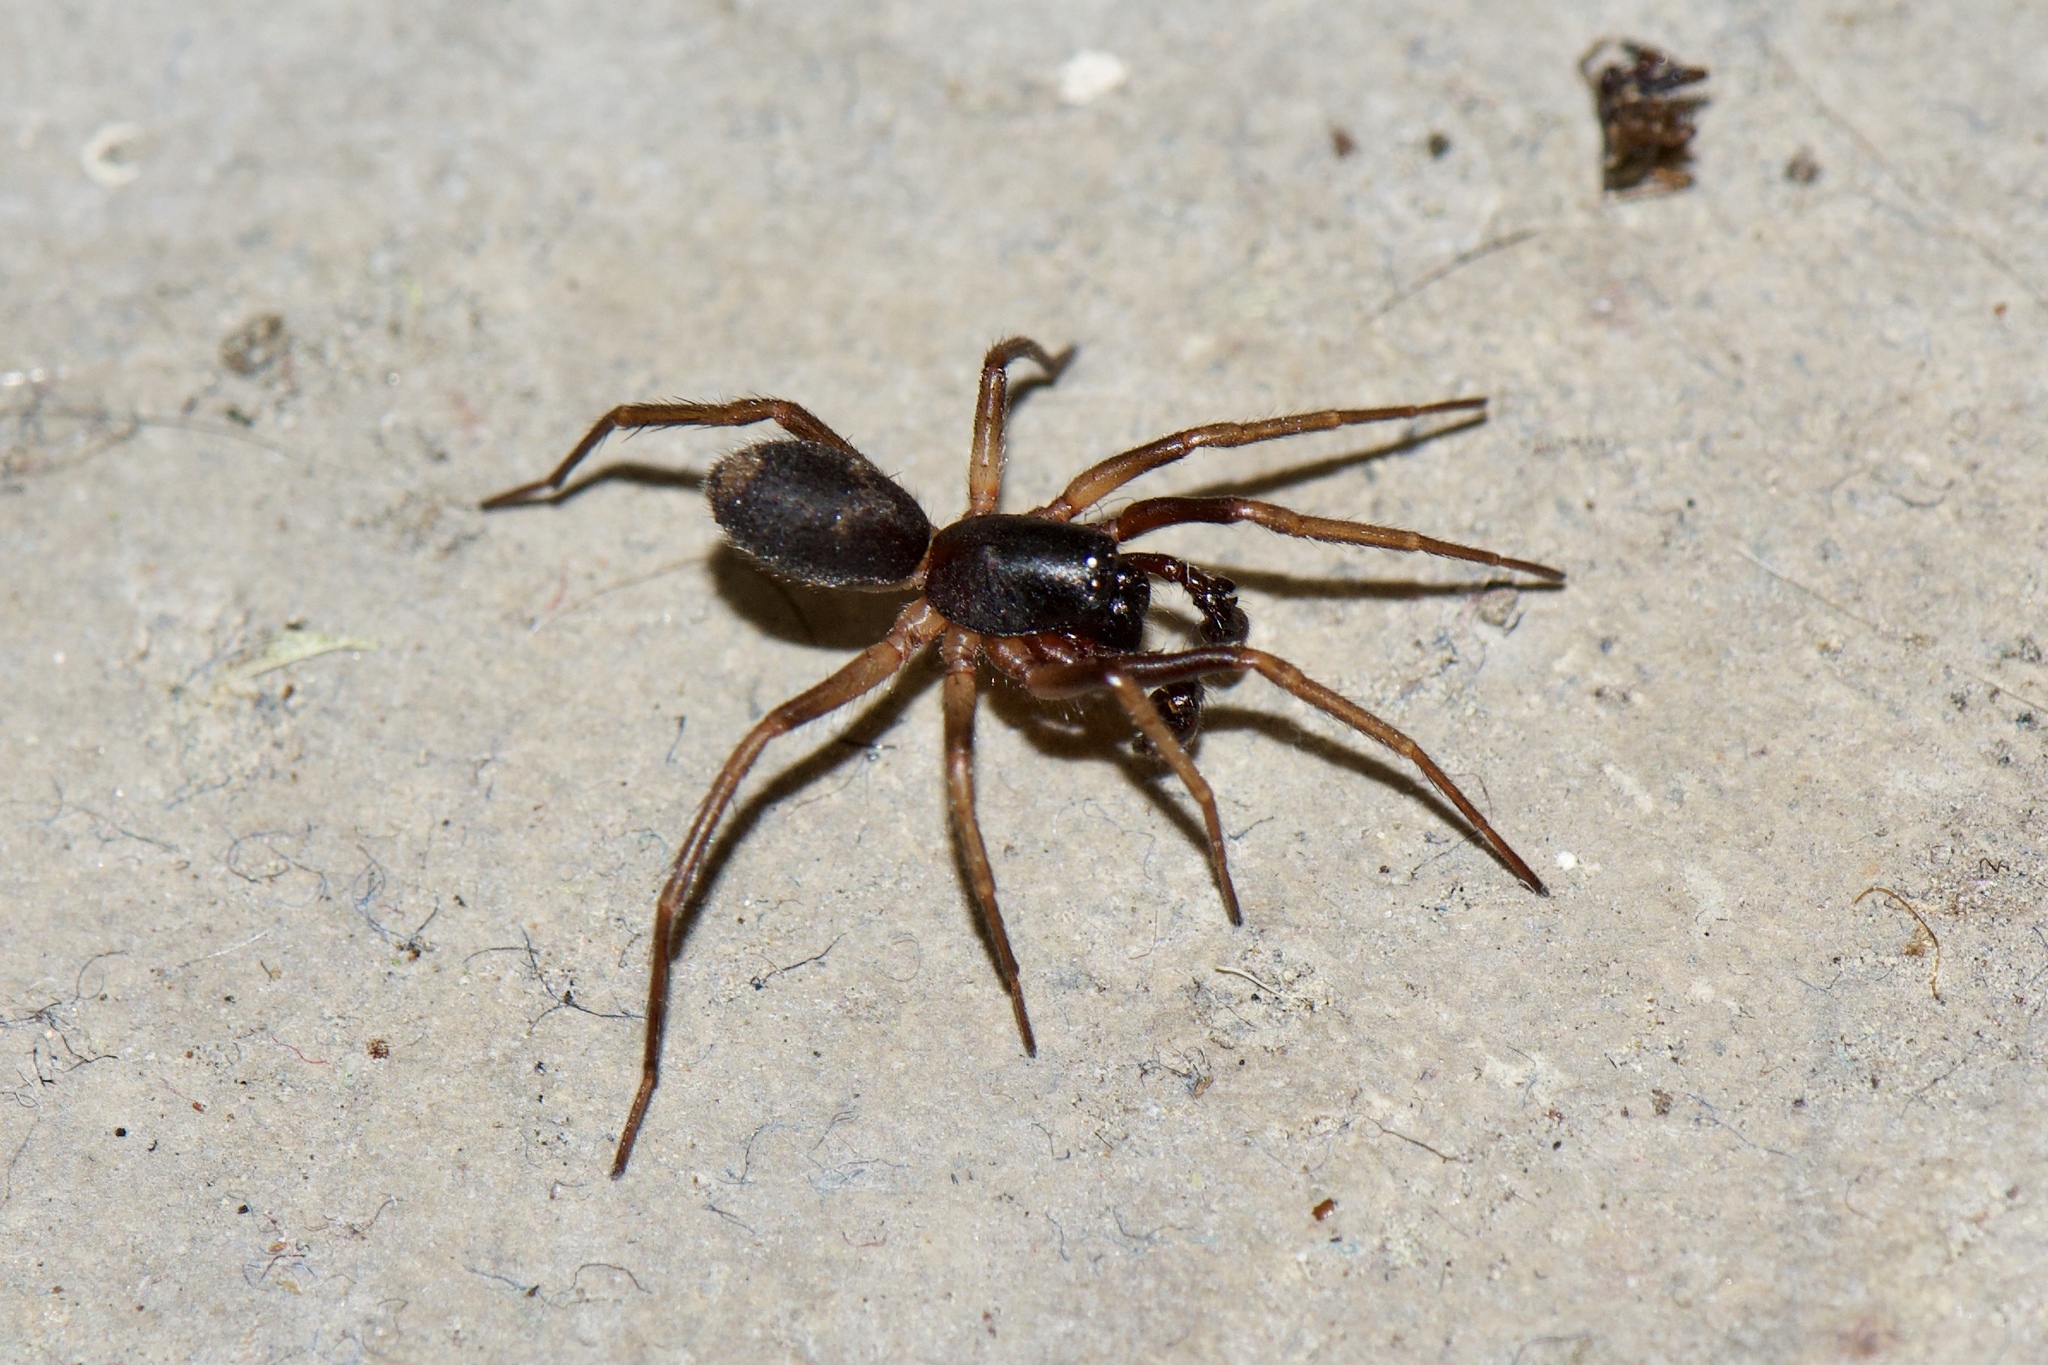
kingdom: Animalia
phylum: Arthropoda
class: Arachnida
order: Araneae
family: Corinnidae
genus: Falconina
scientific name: Falconina gracilis
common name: Antmimic spider
